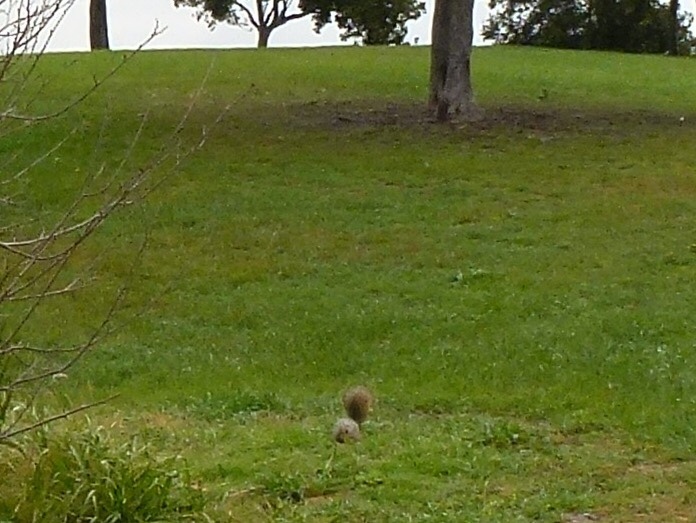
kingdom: Animalia
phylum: Chordata
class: Mammalia
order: Rodentia
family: Sciuridae
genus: Sciurus
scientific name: Sciurus niger
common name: Fox squirrel
